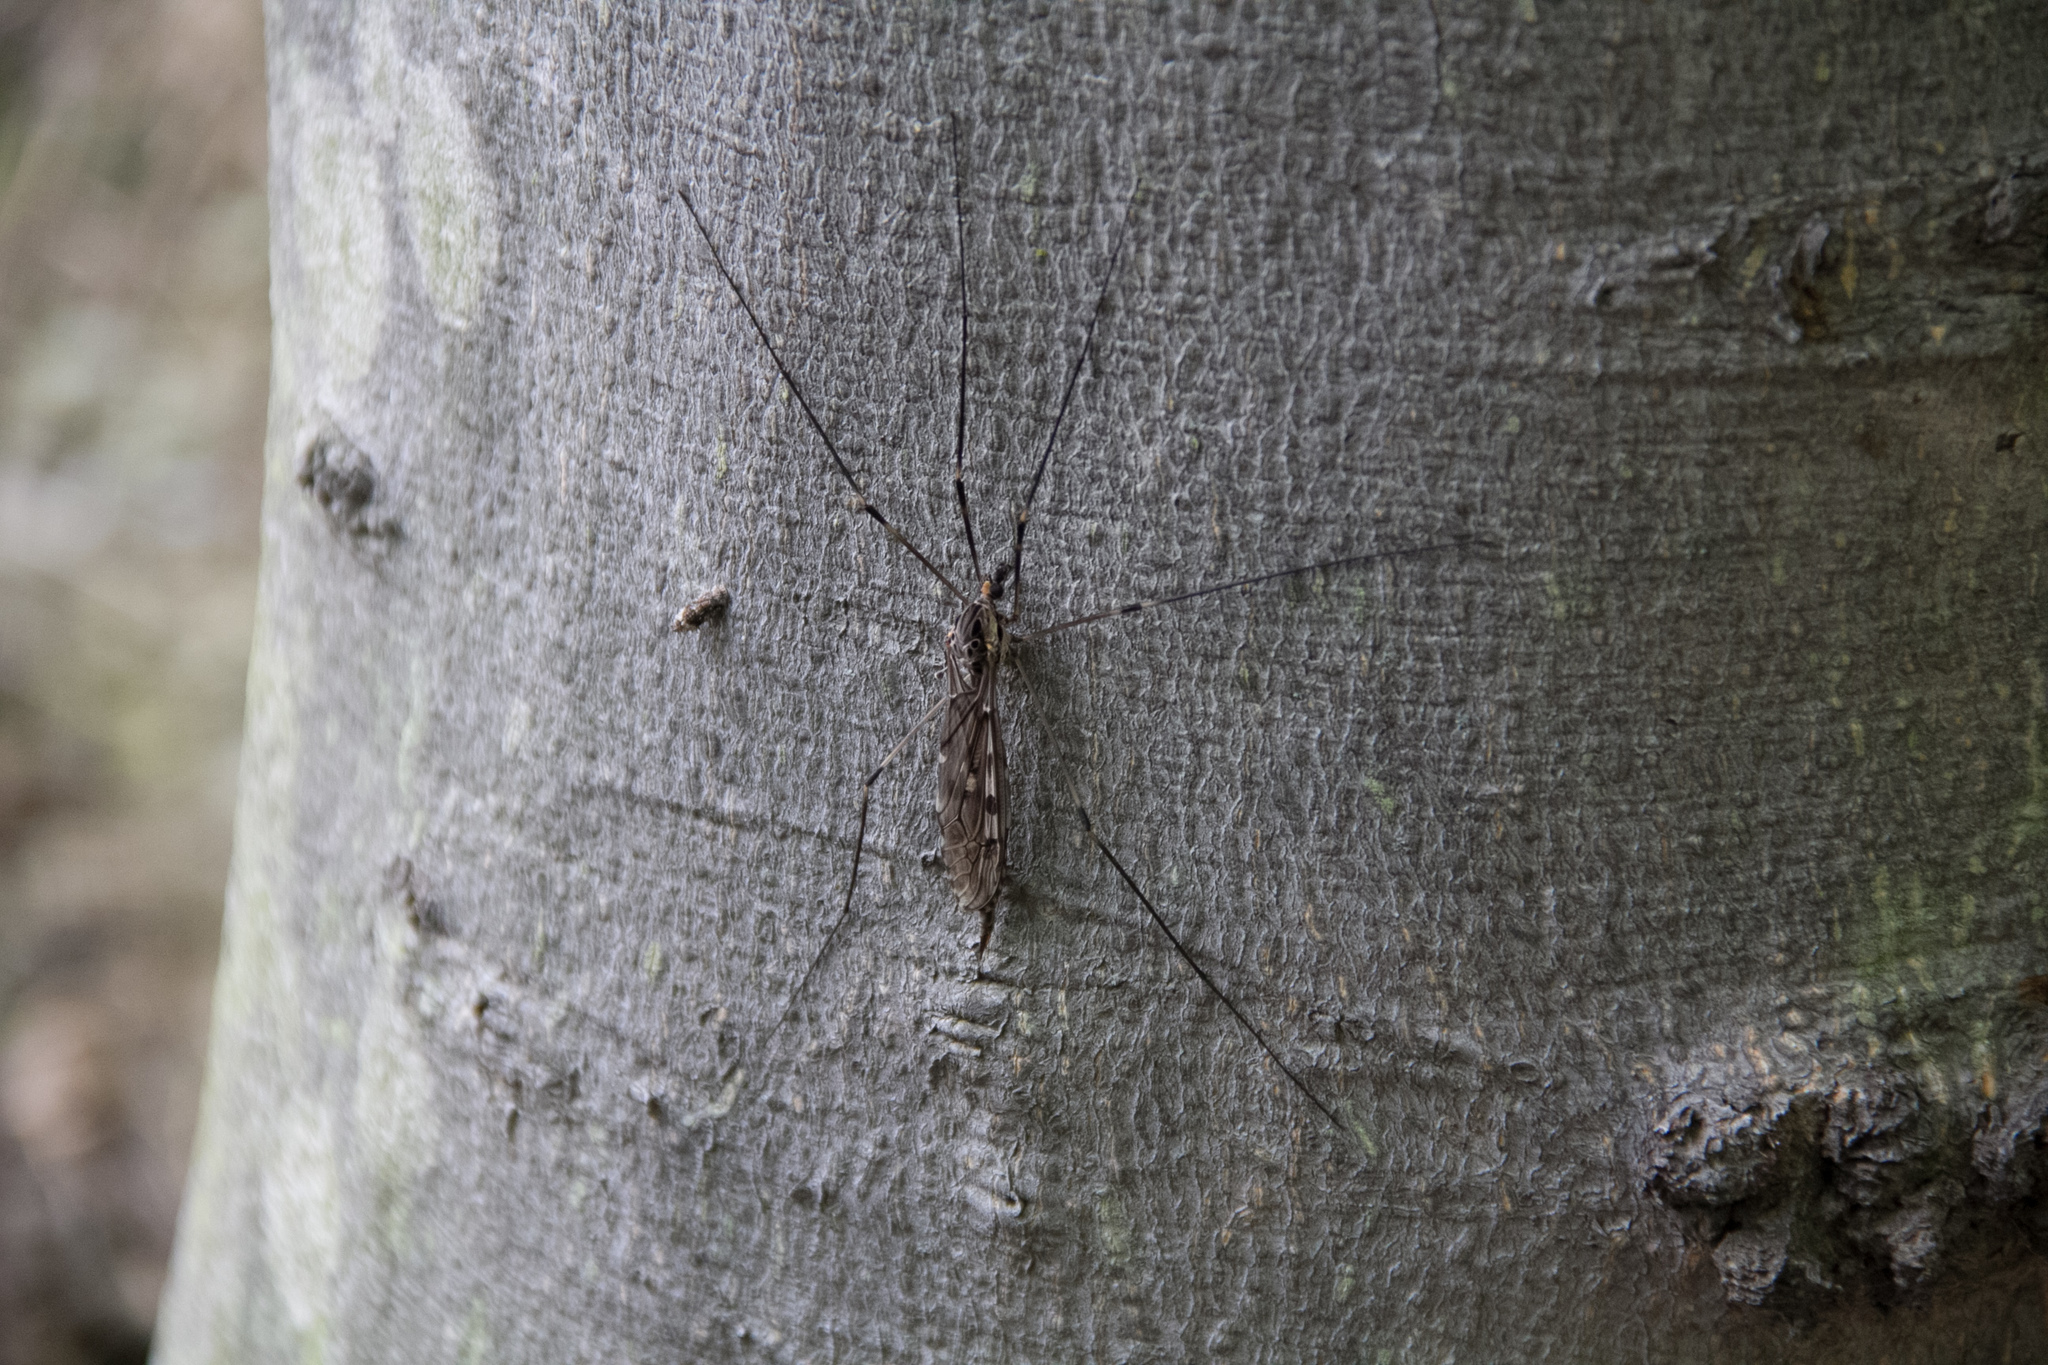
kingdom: Animalia
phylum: Arthropoda
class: Insecta
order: Diptera
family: Tipulidae
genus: Tipula
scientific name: Tipula abdominalis
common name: Giant crane fly
